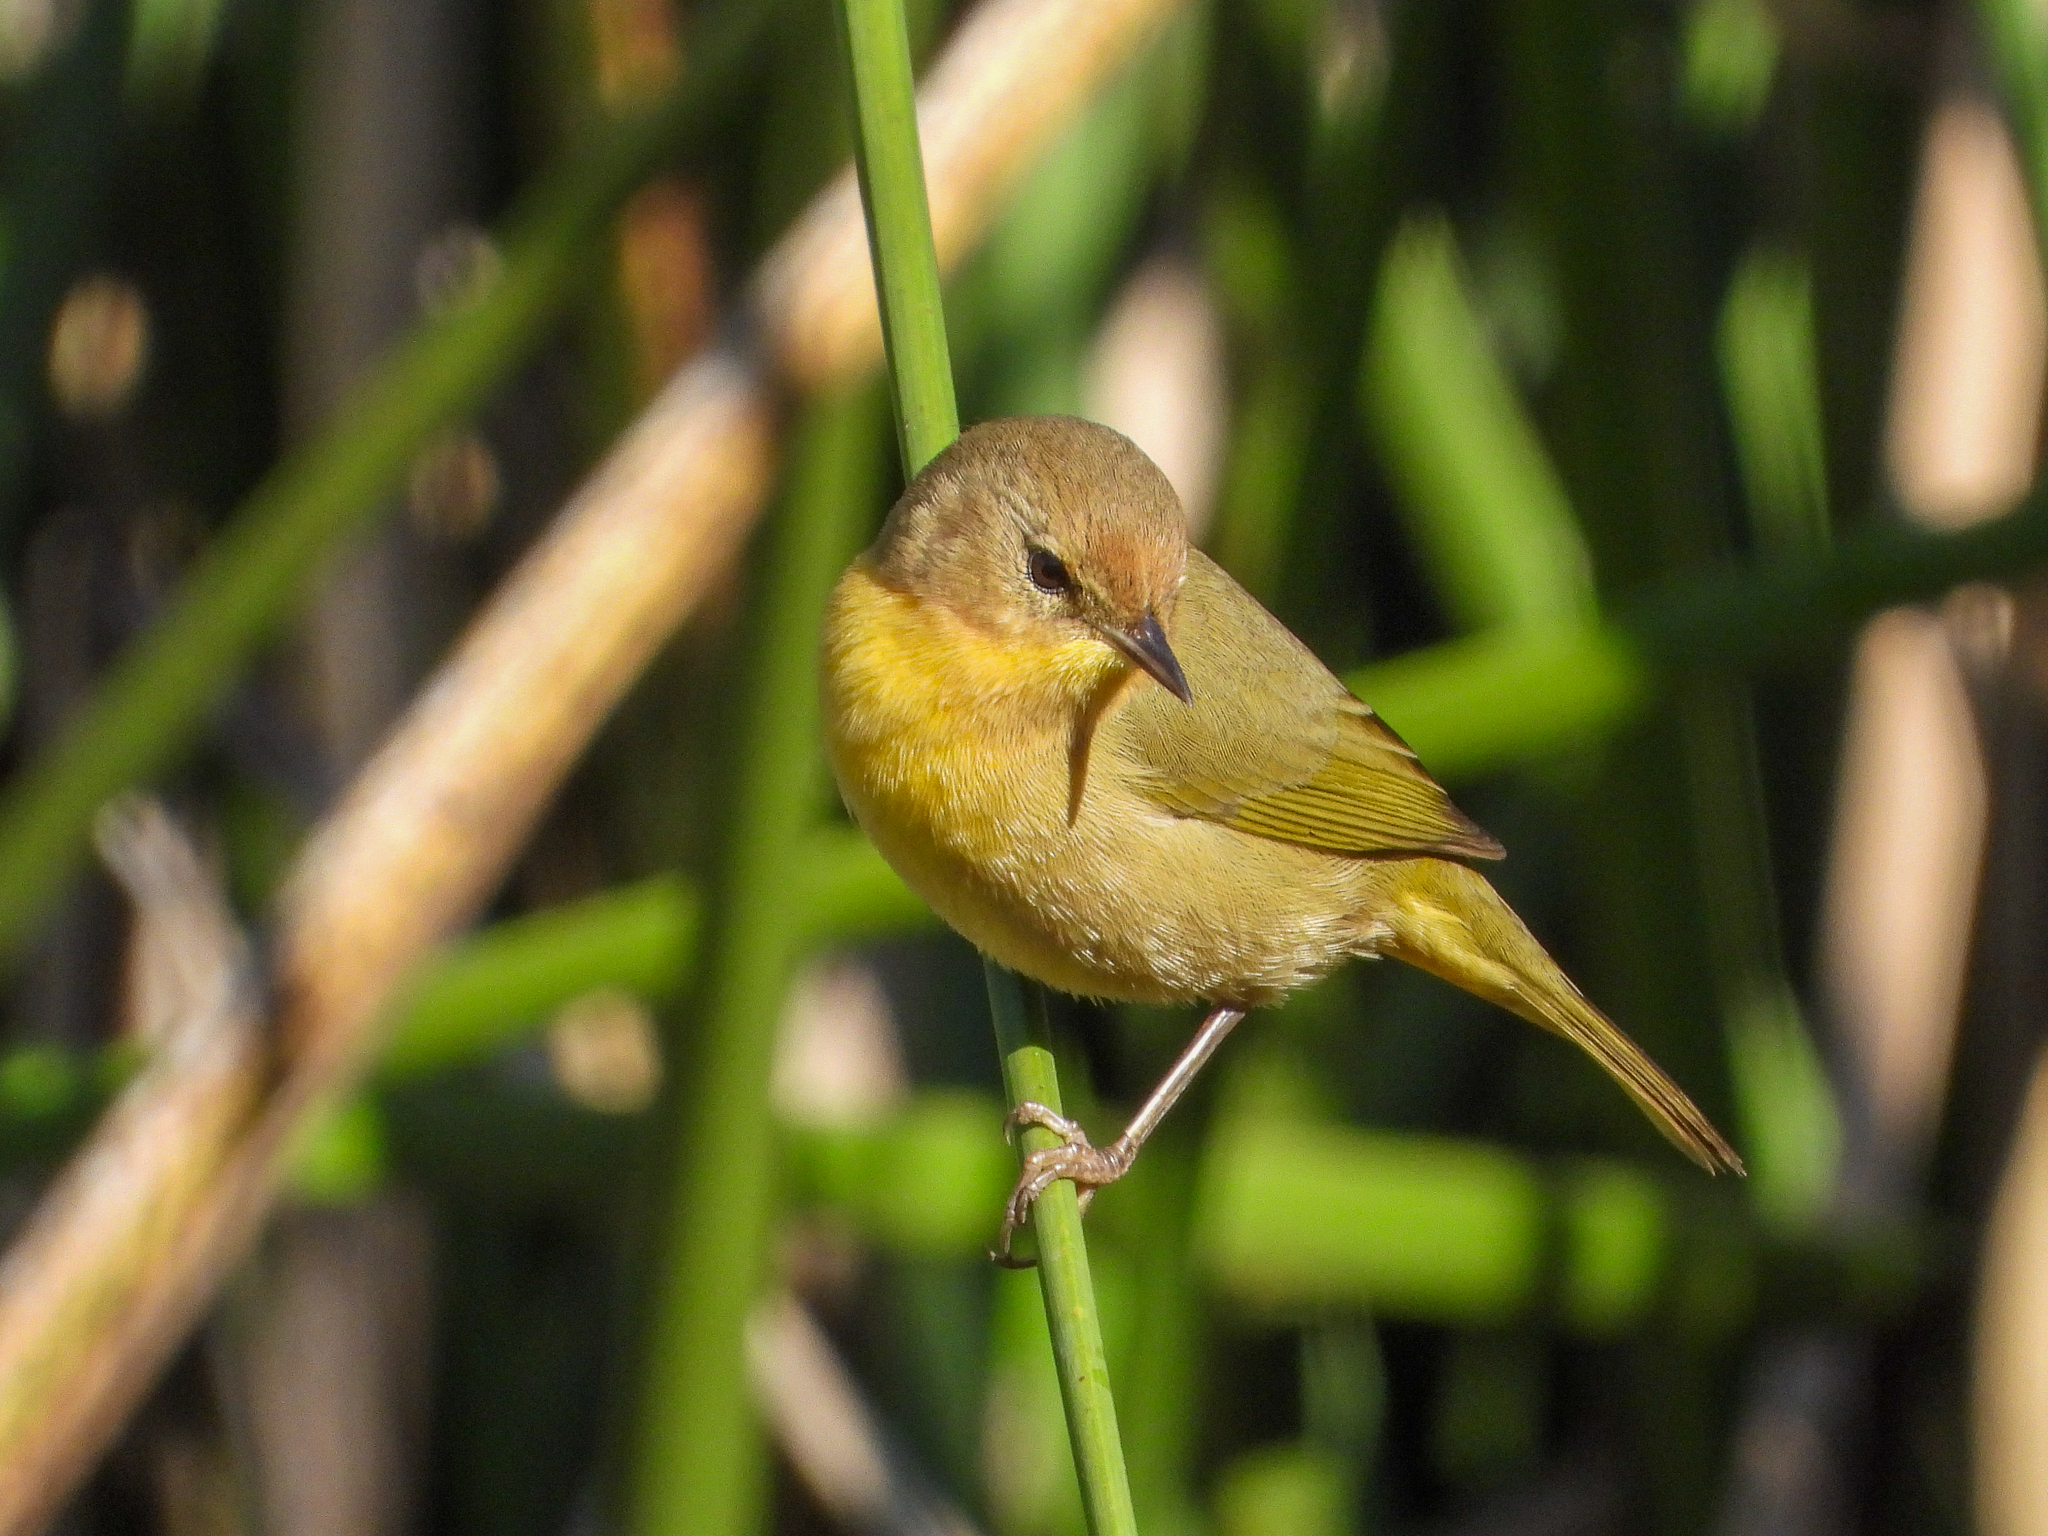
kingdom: Animalia
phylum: Chordata
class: Aves
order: Passeriformes
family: Parulidae
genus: Geothlypis
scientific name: Geothlypis trichas
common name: Common yellowthroat
